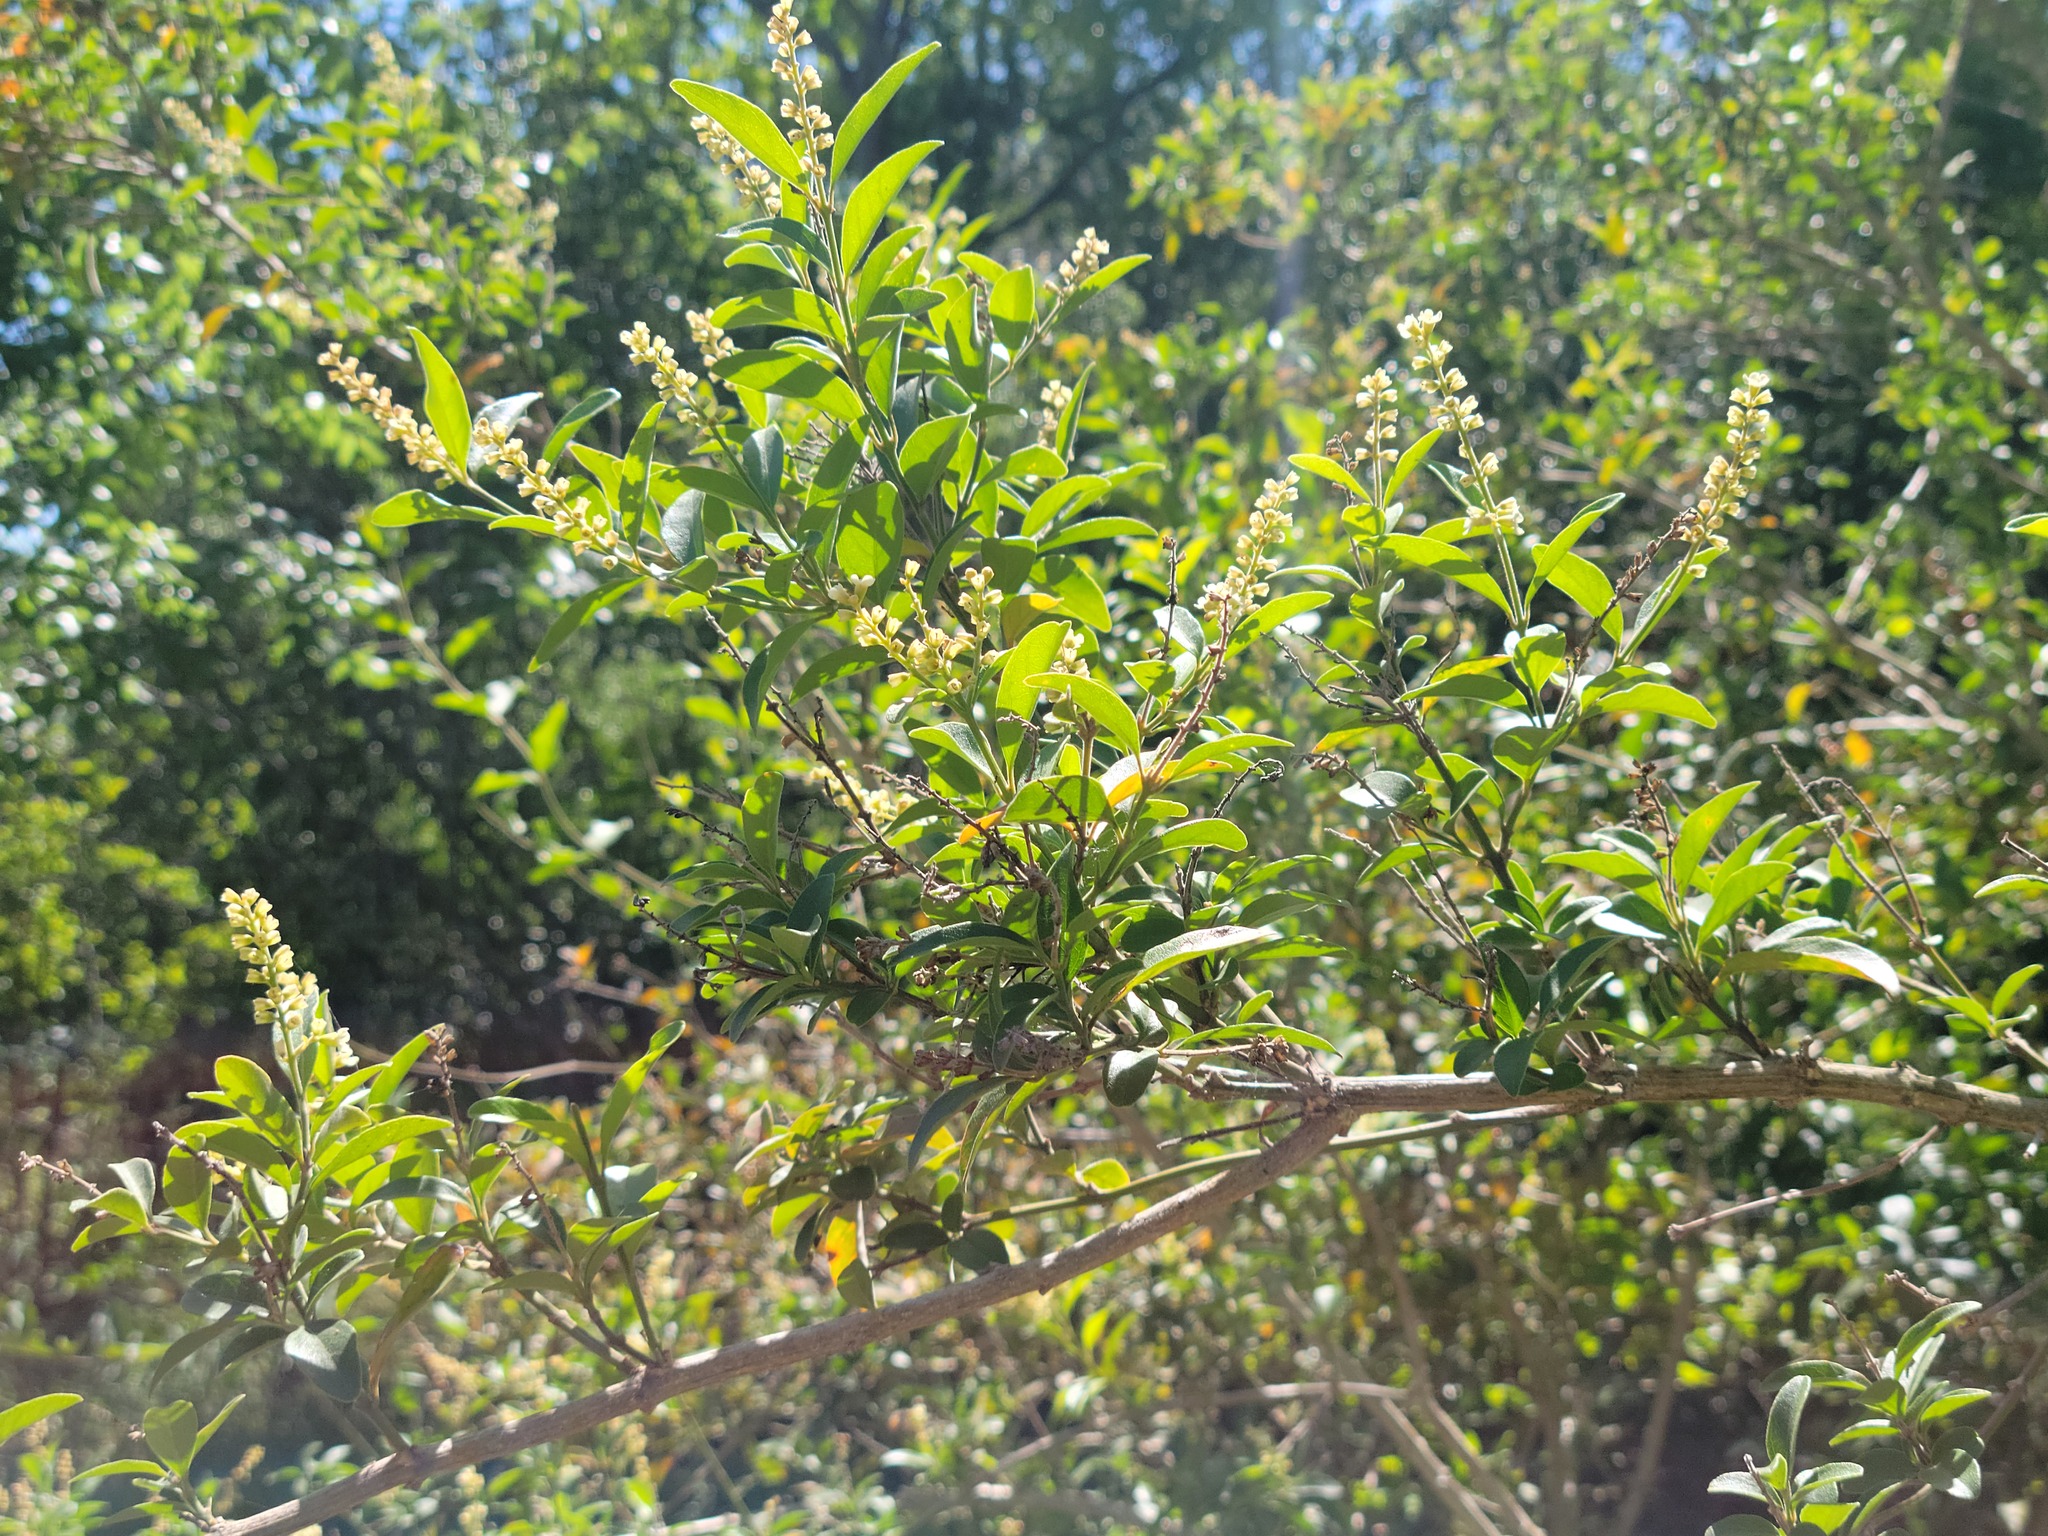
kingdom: Plantae
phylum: Tracheophyta
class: Magnoliopsida
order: Lamiales
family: Verbenaceae
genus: Citharexylum
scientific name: Citharexylum berlandieri
